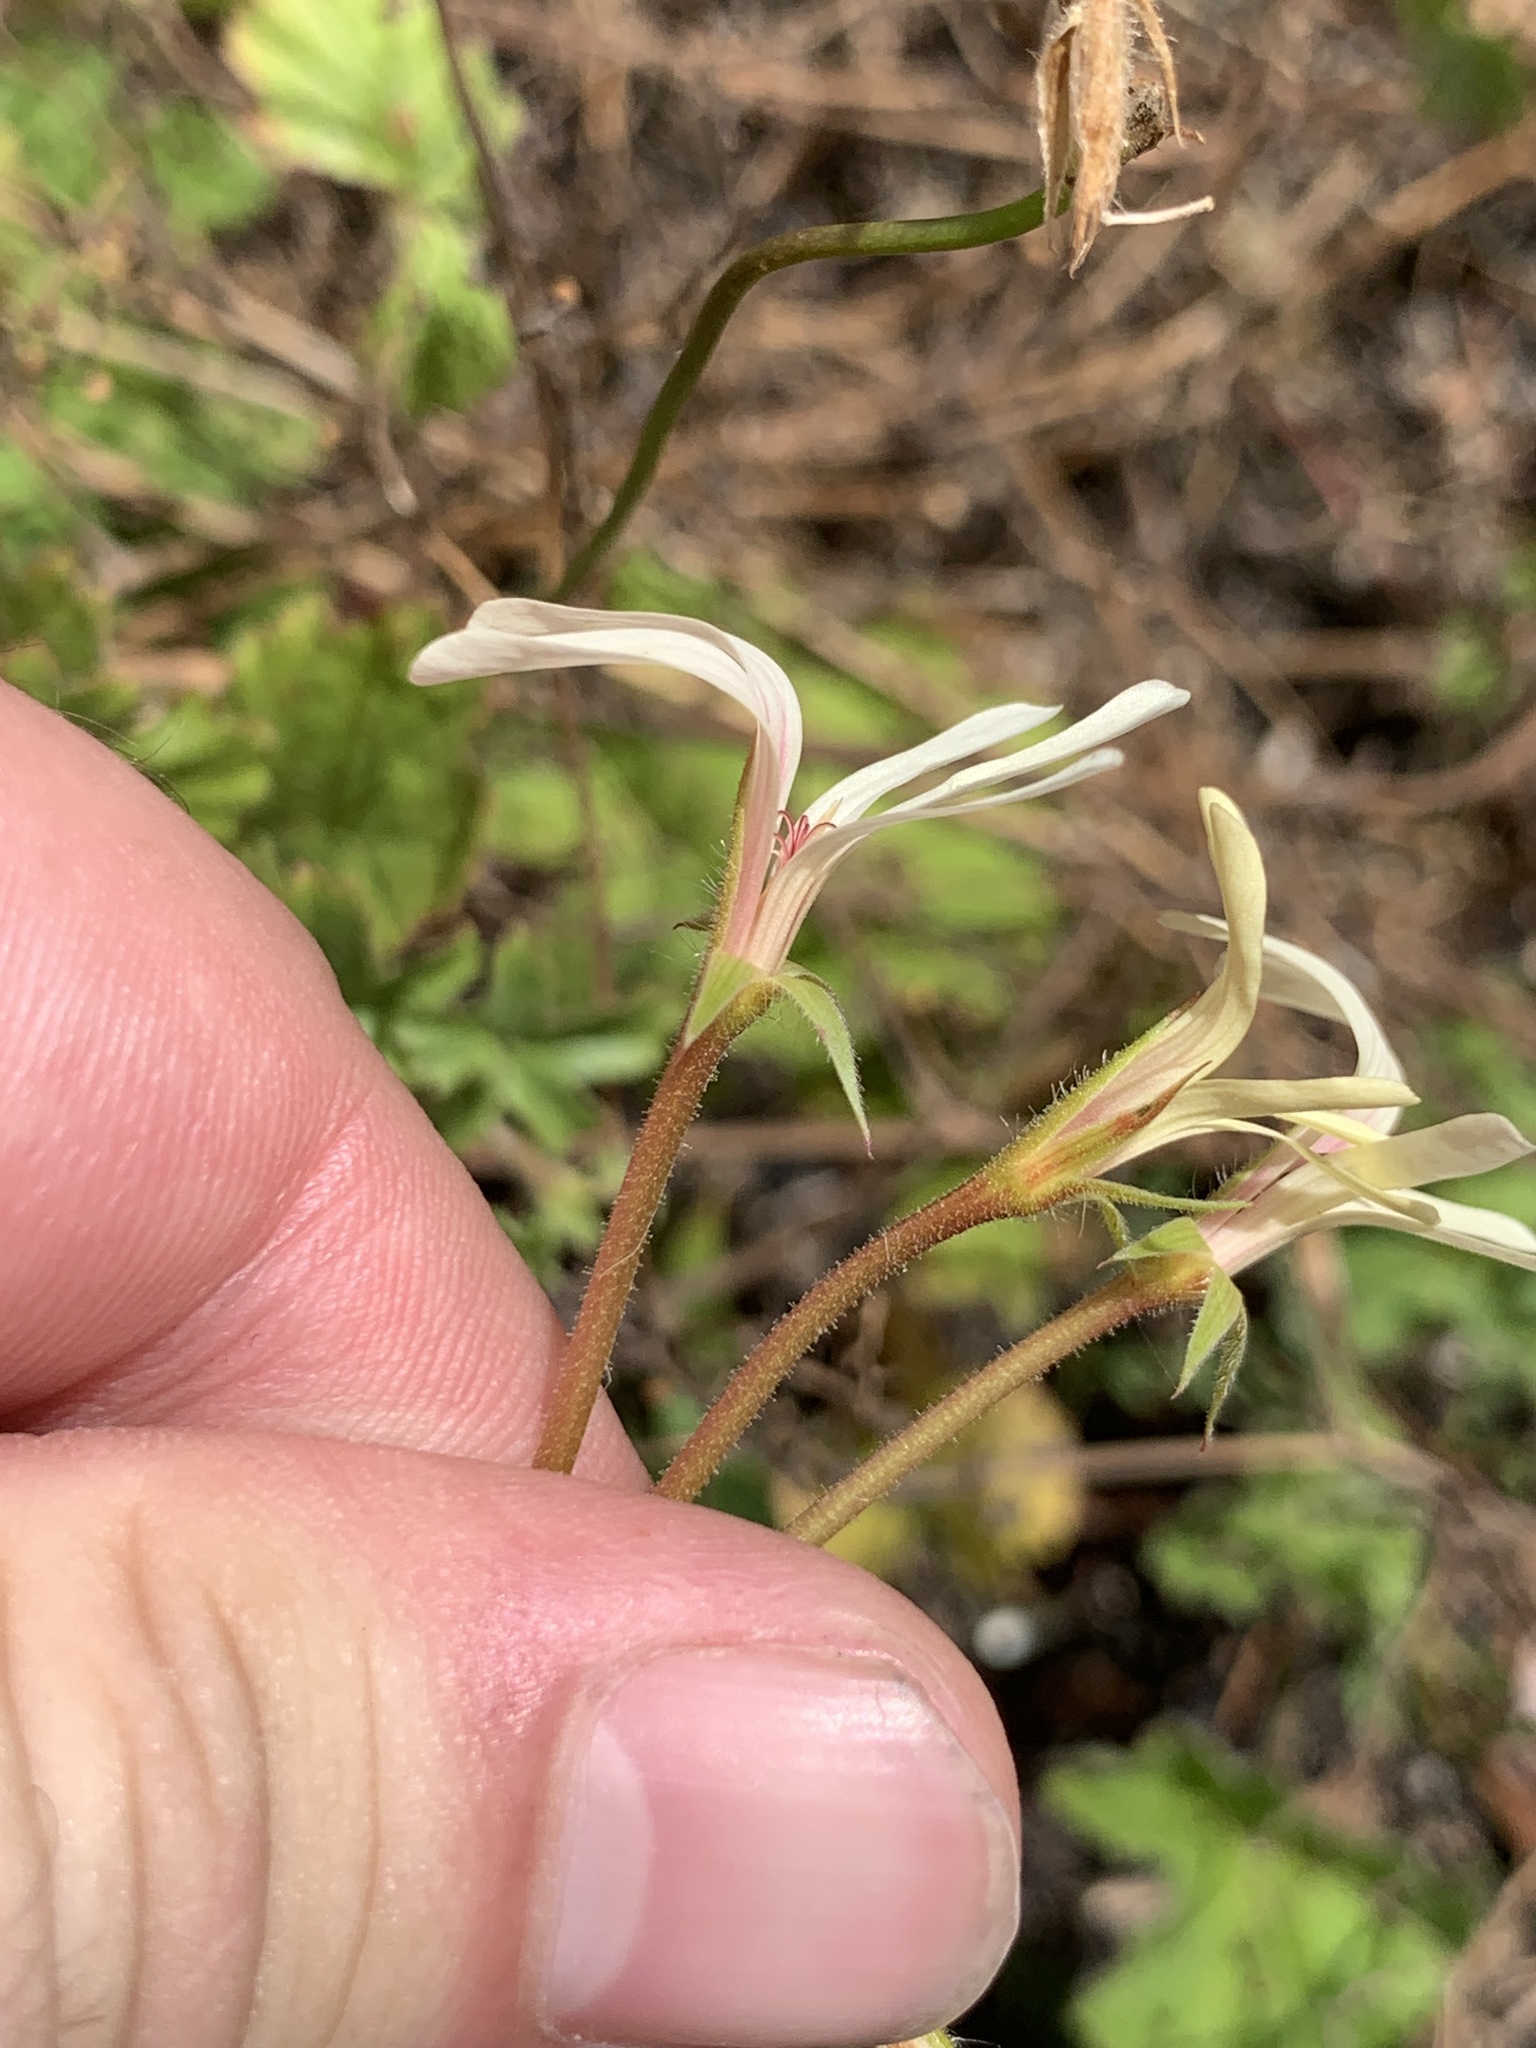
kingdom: Plantae
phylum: Tracheophyta
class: Magnoliopsida
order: Geraniales
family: Geraniaceae
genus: Pelargonium
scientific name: Pelargonium elongatum
